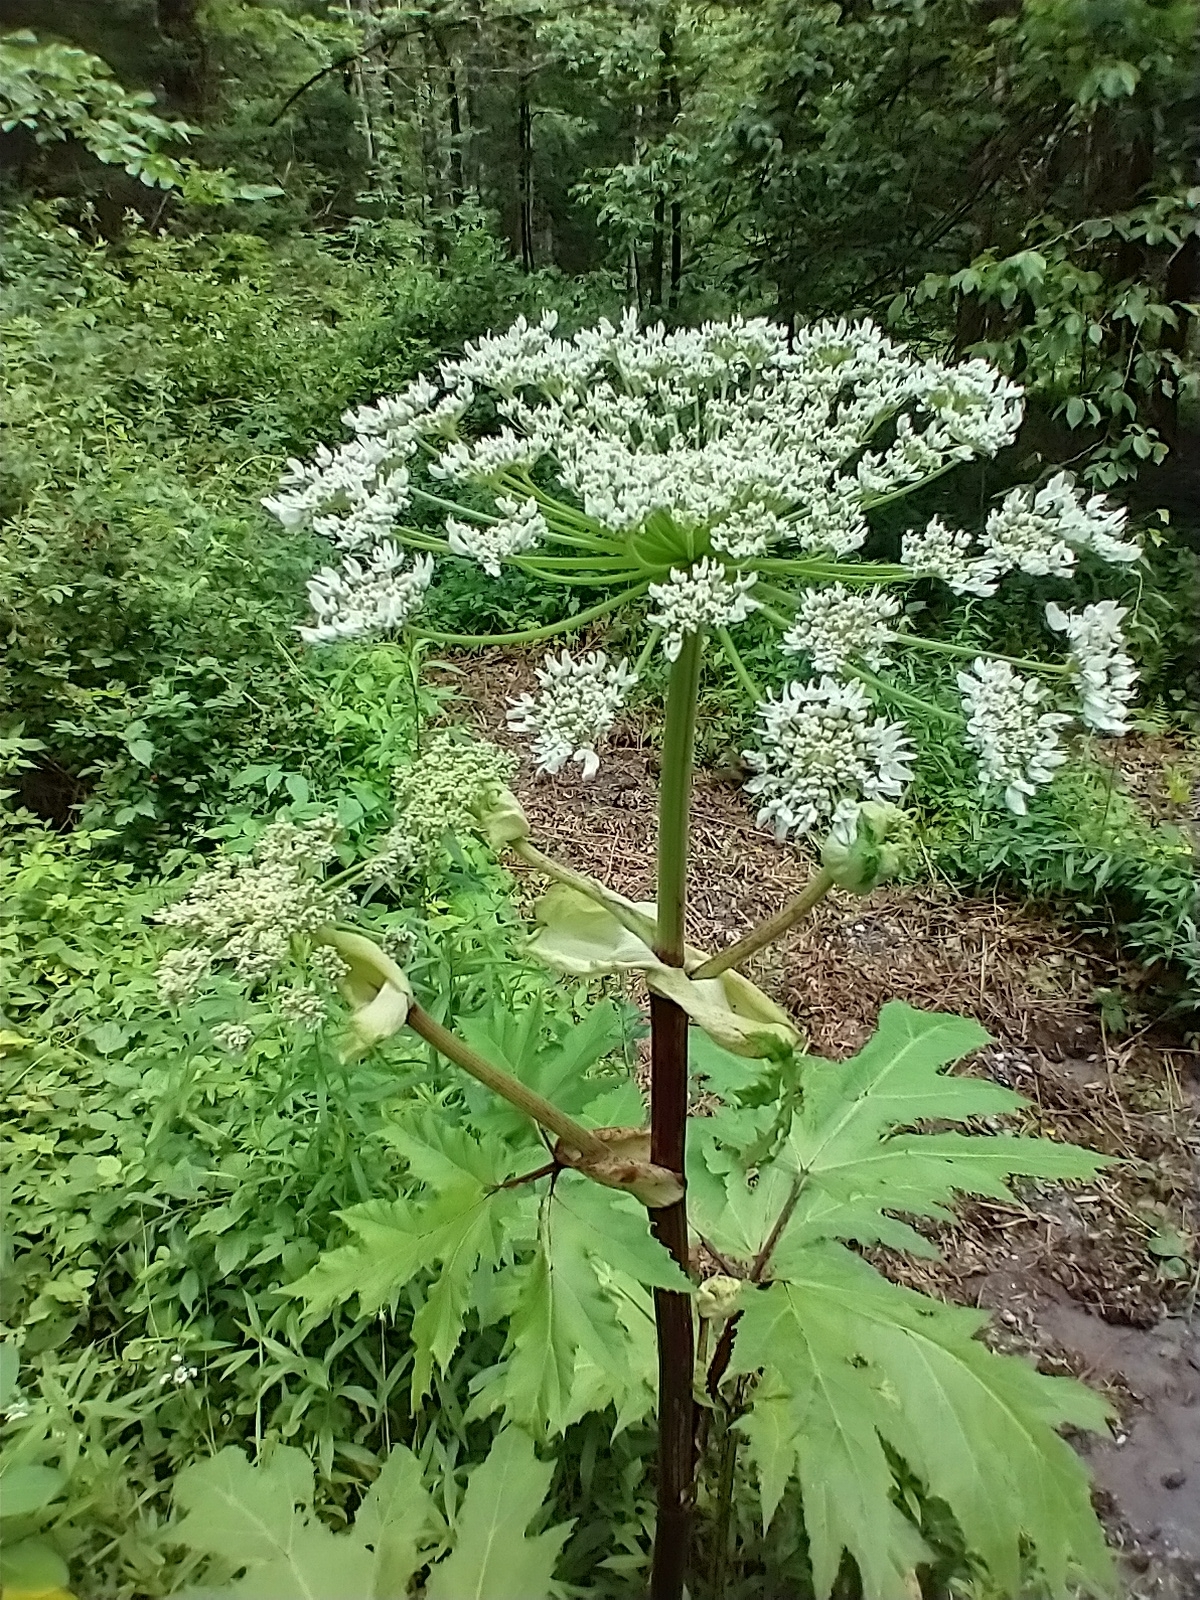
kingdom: Plantae
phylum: Tracheophyta
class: Magnoliopsida
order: Apiales
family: Apiaceae
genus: Heracleum
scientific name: Heracleum mantegazzianum
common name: Giant hogweed
